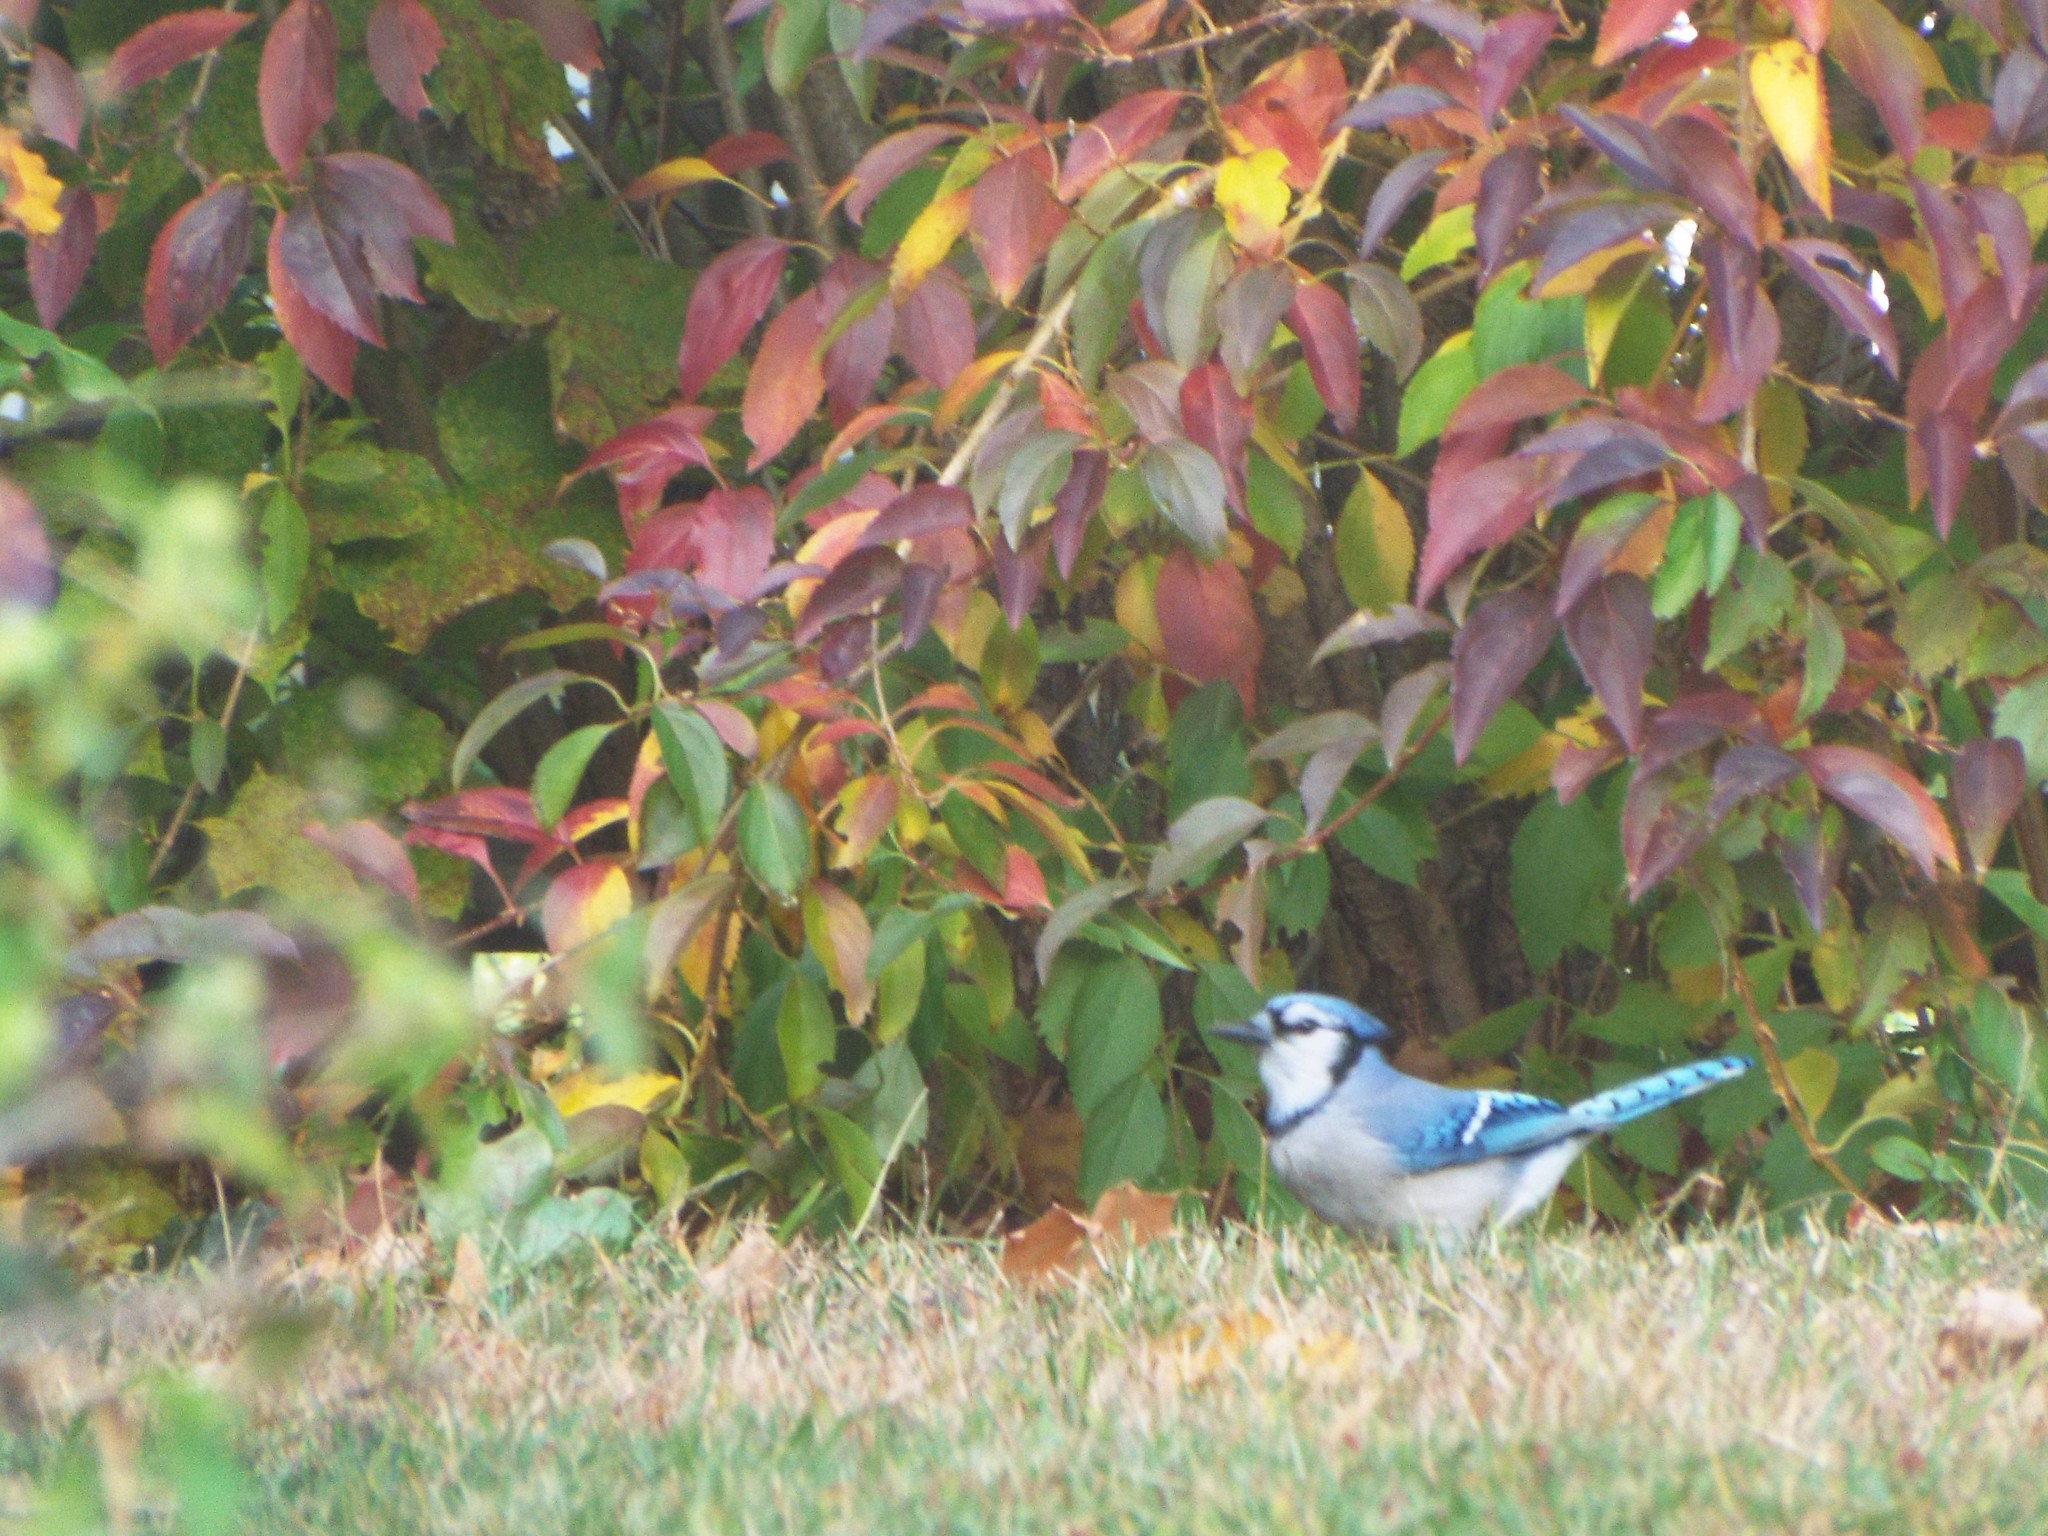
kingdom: Animalia
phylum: Chordata
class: Aves
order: Passeriformes
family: Corvidae
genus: Cyanocitta
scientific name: Cyanocitta cristata
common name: Blue jay
